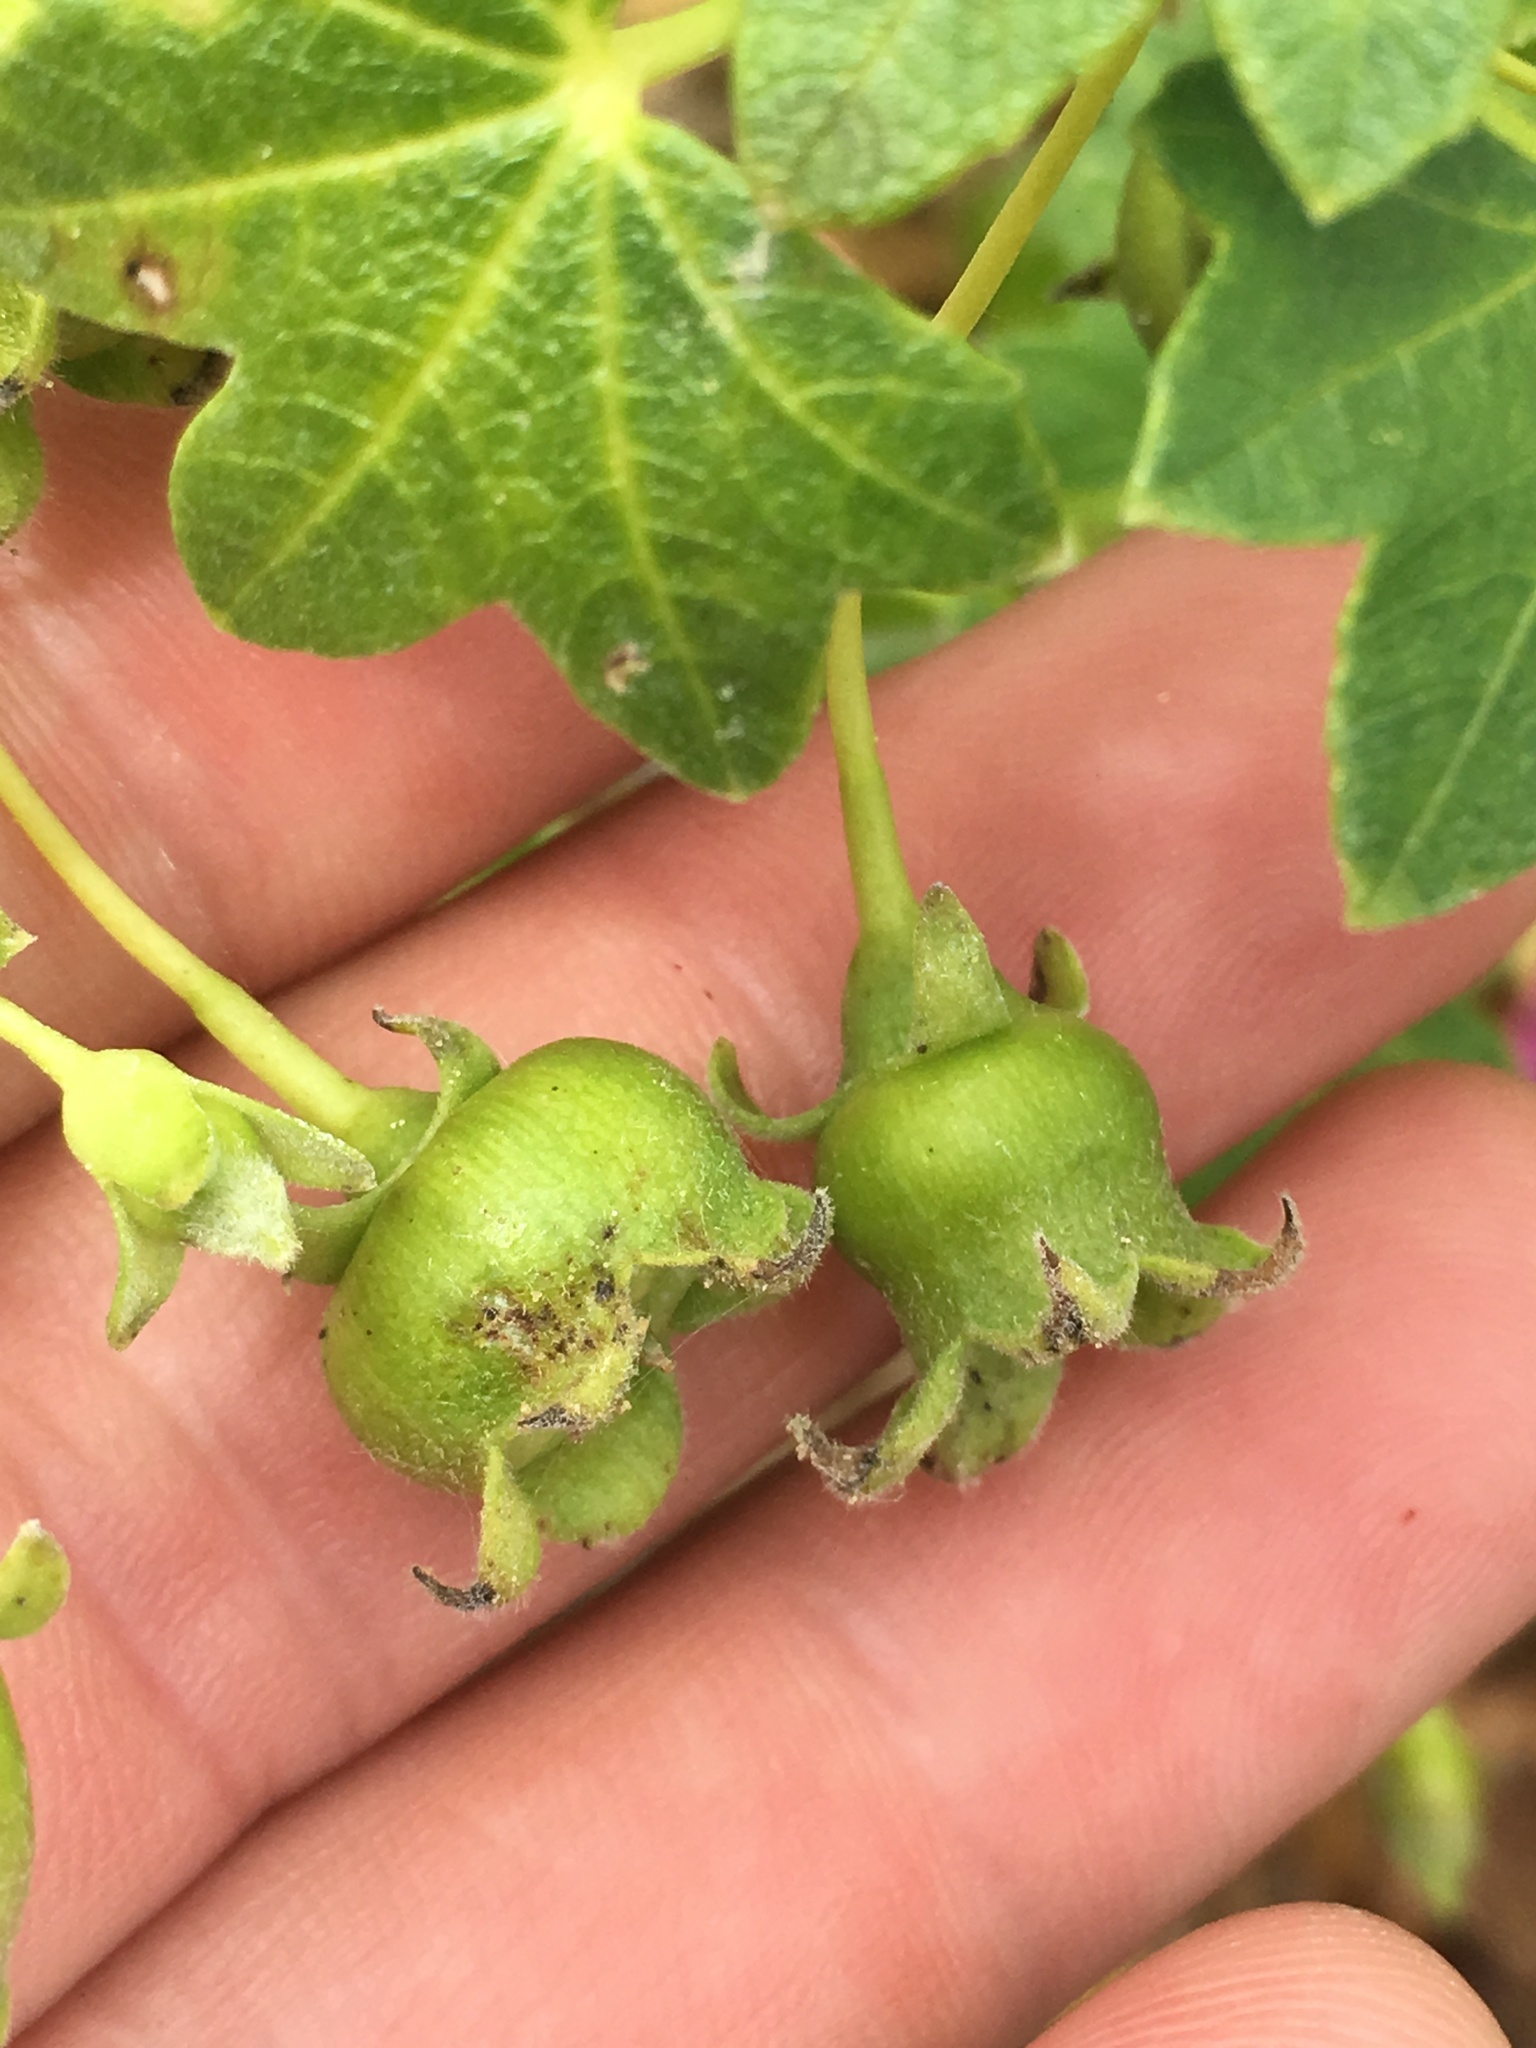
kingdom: Plantae
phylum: Tracheophyta
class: Magnoliopsida
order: Malvales
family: Malvaceae
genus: Malva
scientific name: Malva assurgentiflora
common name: Island mallow
